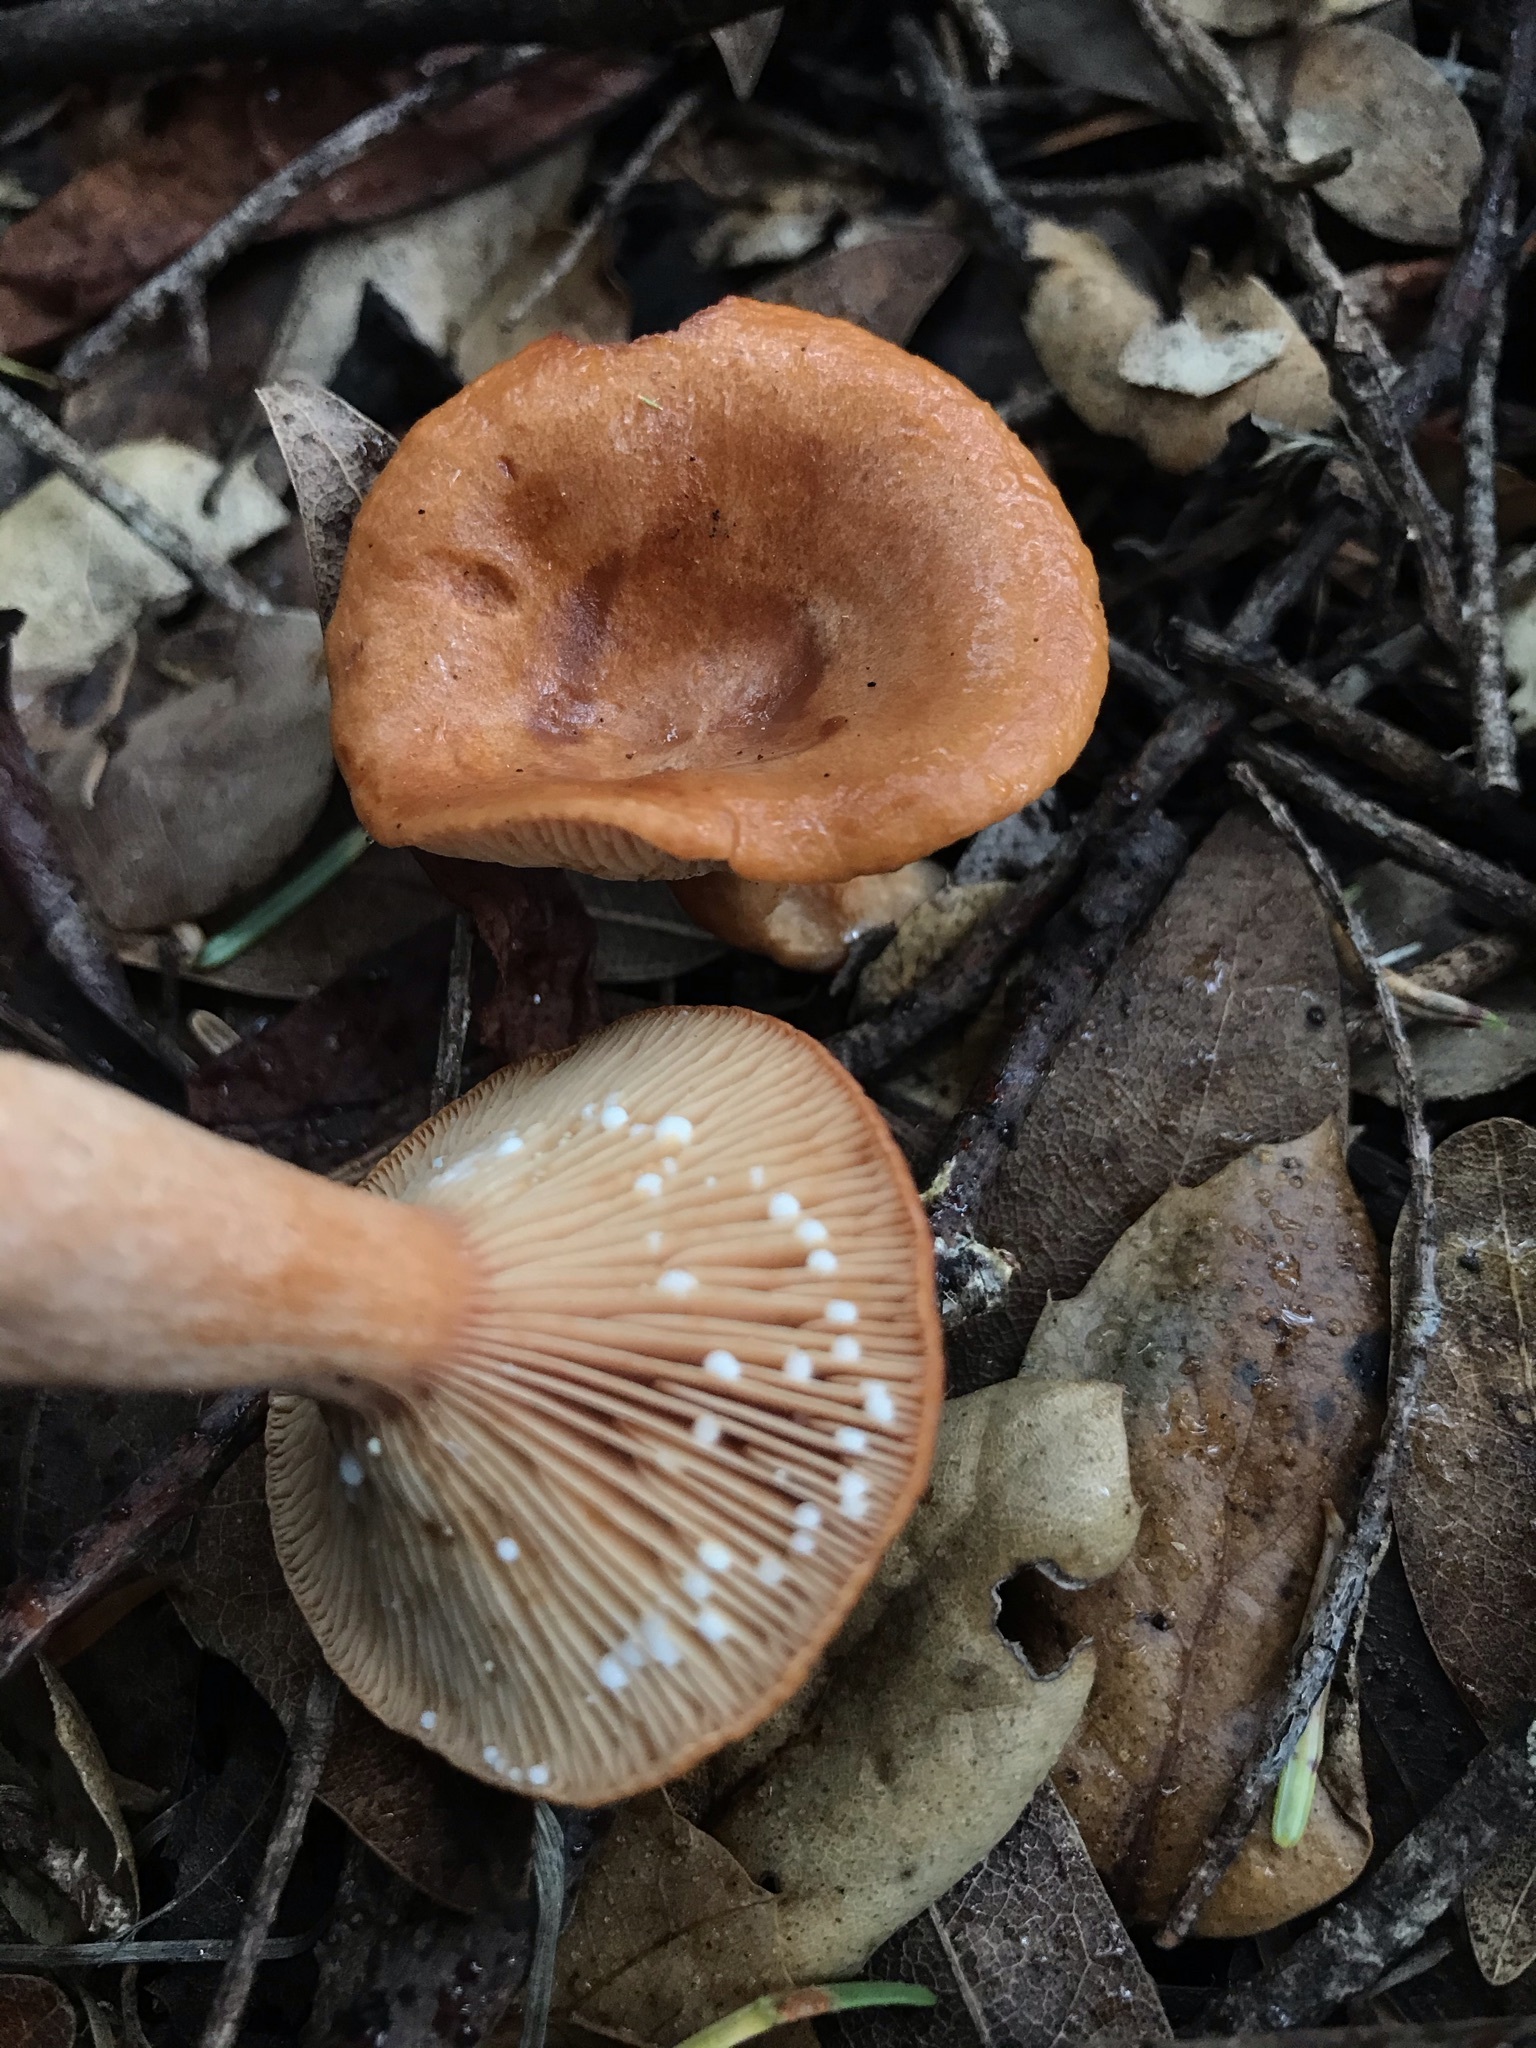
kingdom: Fungi
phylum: Basidiomycota
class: Agaricomycetes
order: Russulales
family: Russulaceae
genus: Lactarius
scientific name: Lactarius xanthogalactus
